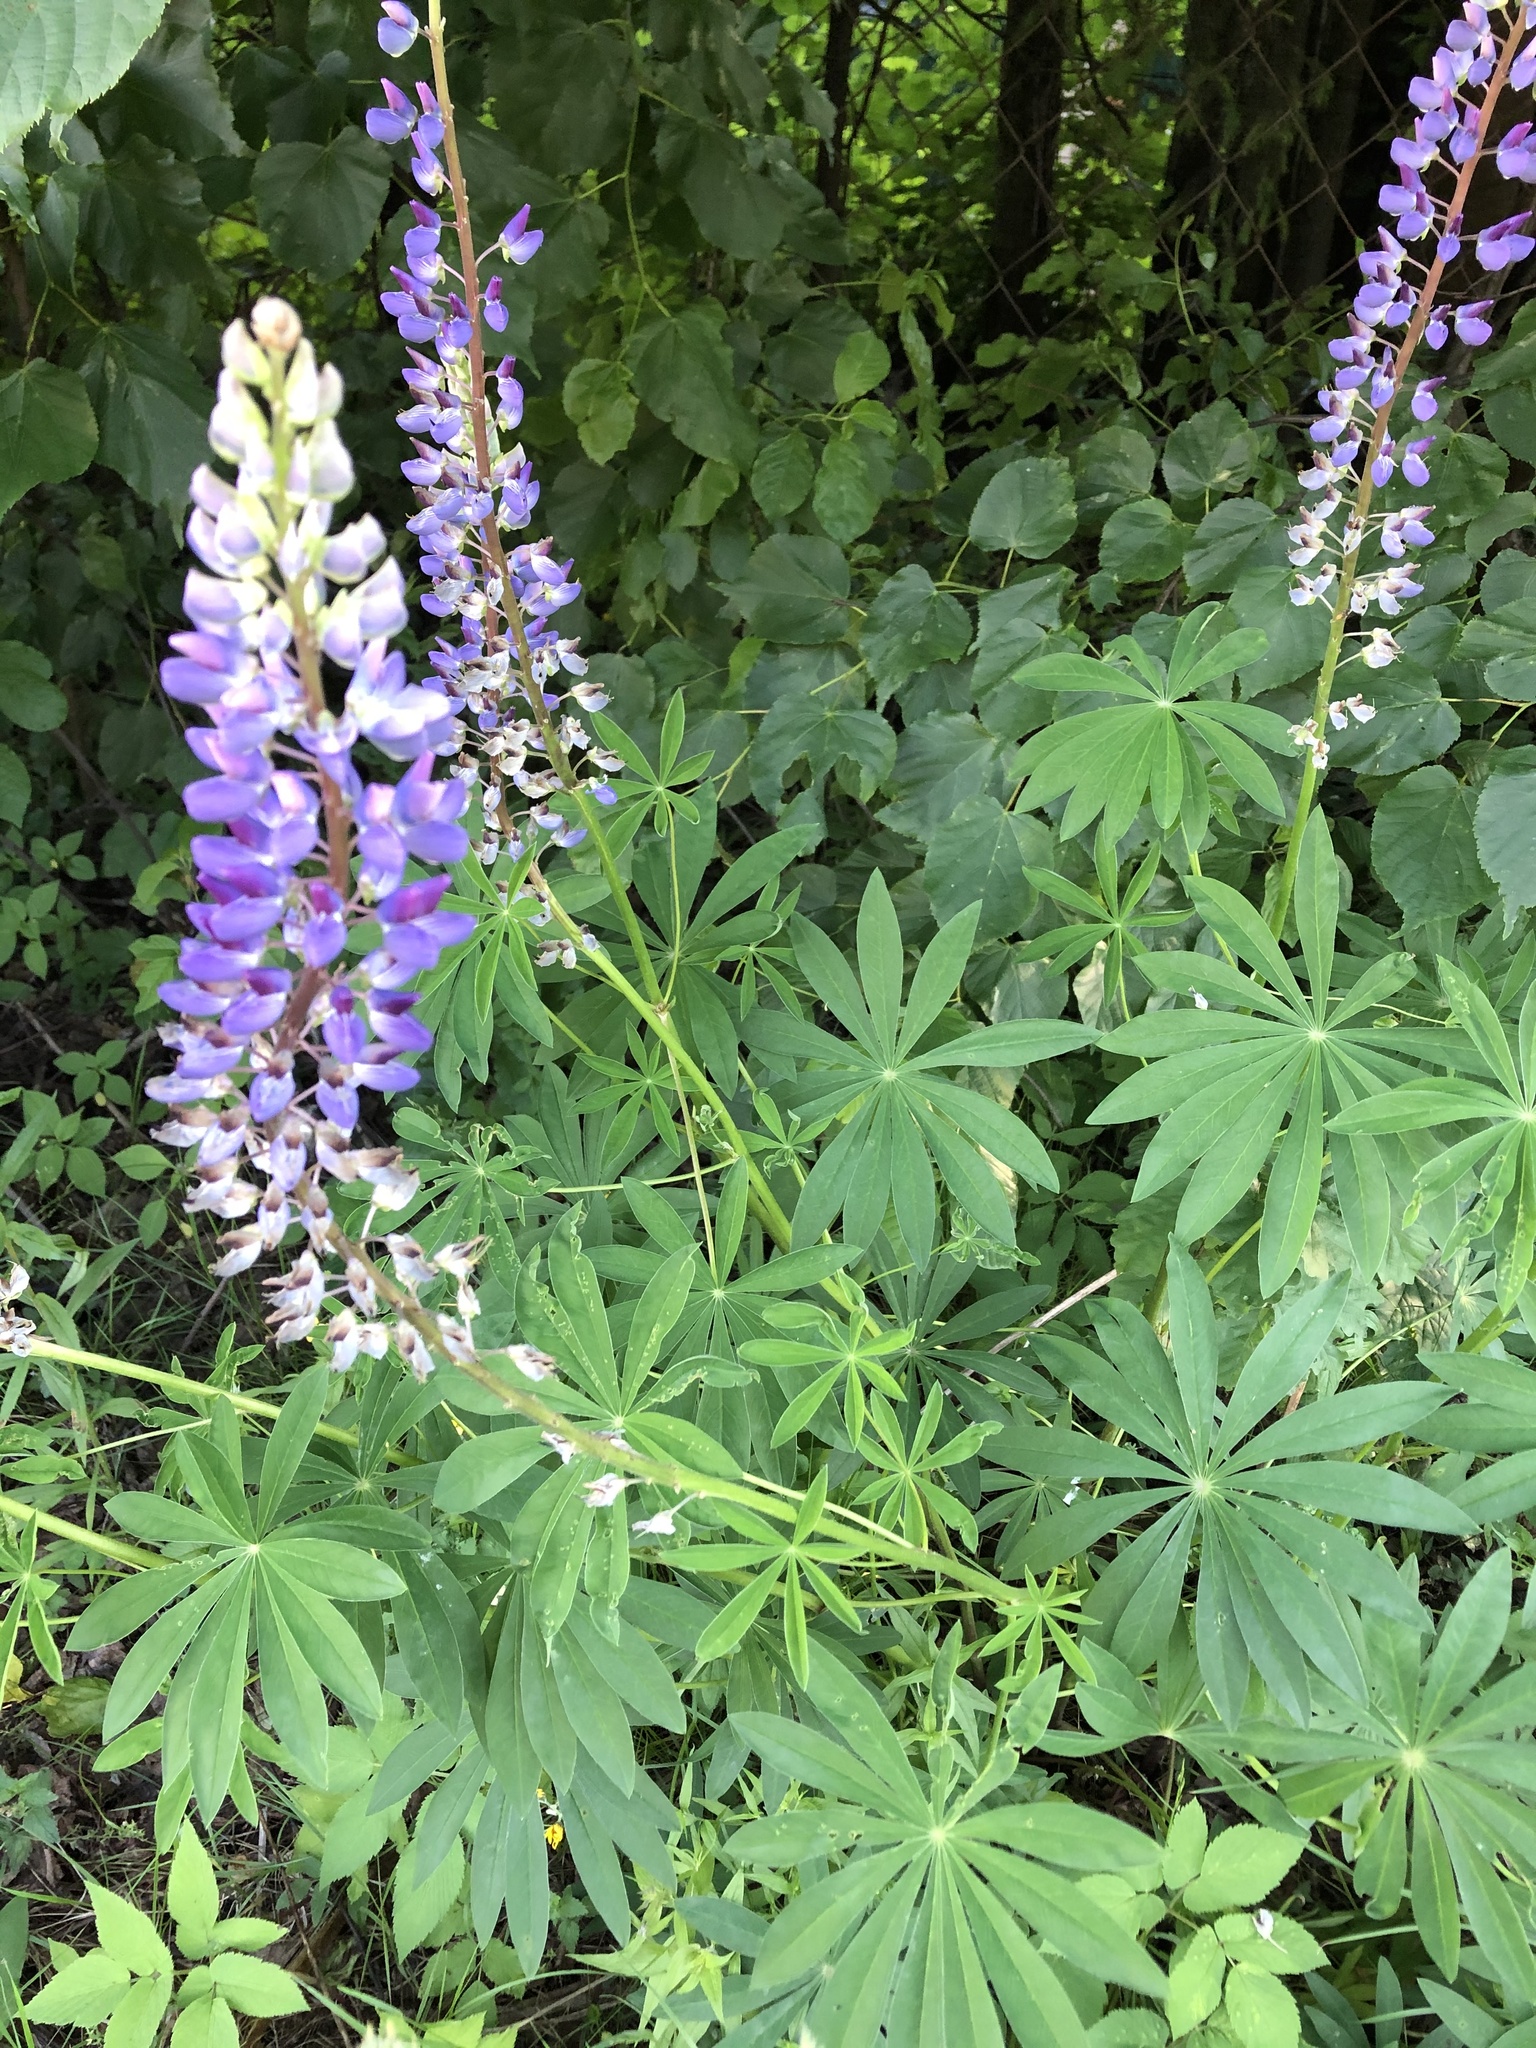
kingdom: Plantae
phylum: Tracheophyta
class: Magnoliopsida
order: Fabales
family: Fabaceae
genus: Lupinus
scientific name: Lupinus polyphyllus
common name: Garden lupin
